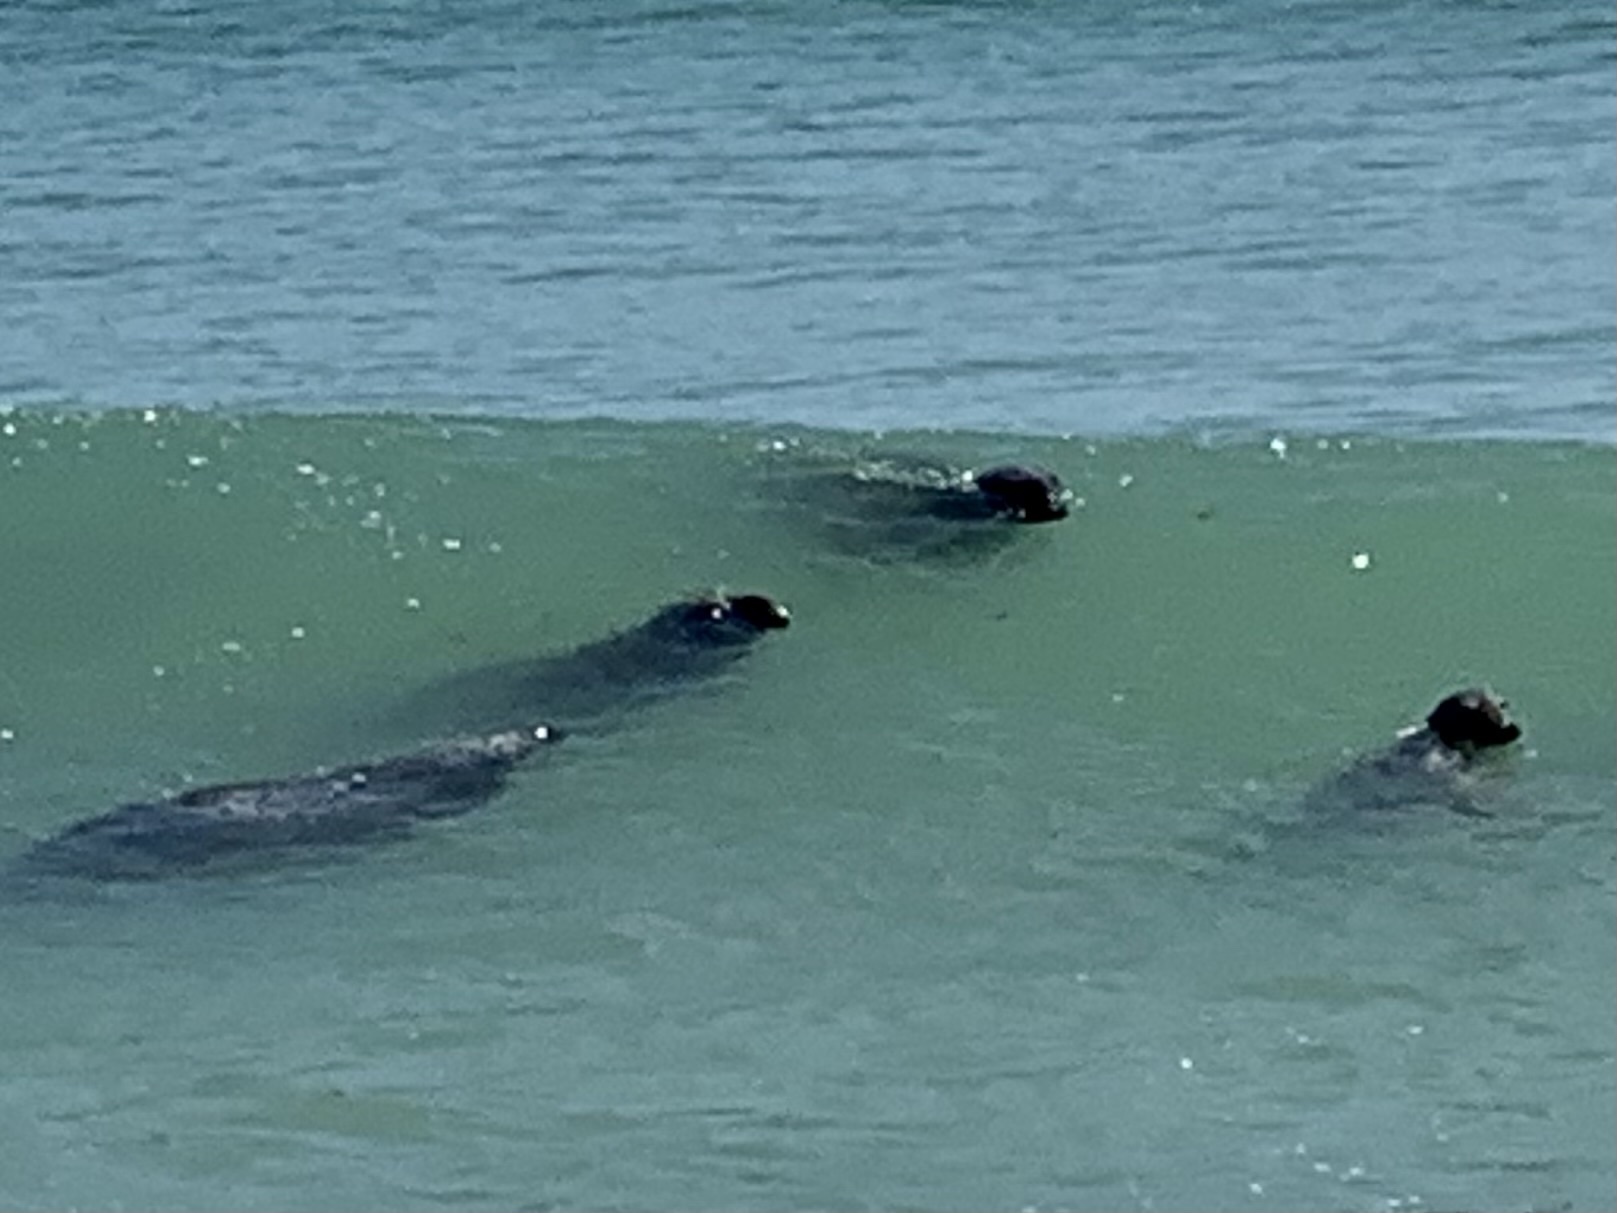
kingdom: Animalia
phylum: Chordata
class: Mammalia
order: Carnivora
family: Phocidae
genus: Halichoerus
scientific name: Halichoerus grypus
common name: Grey seal
